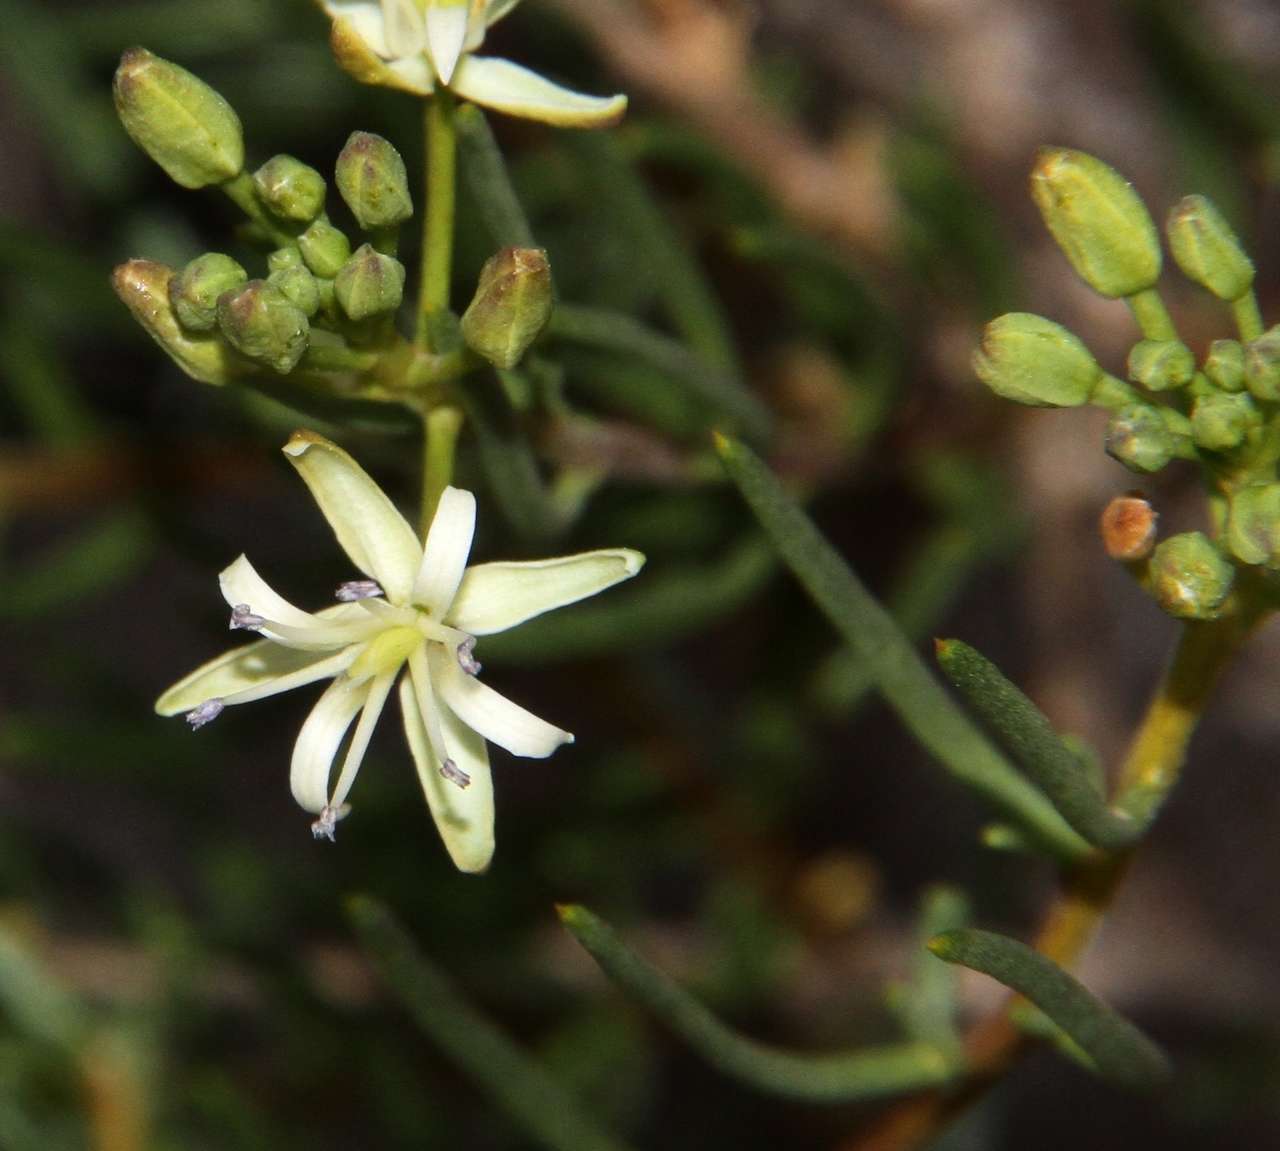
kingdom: Plantae
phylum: Tracheophyta
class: Magnoliopsida
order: Brassicales
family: Brassicaceae
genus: Lepidium
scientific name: Lepidium leptopetalum
